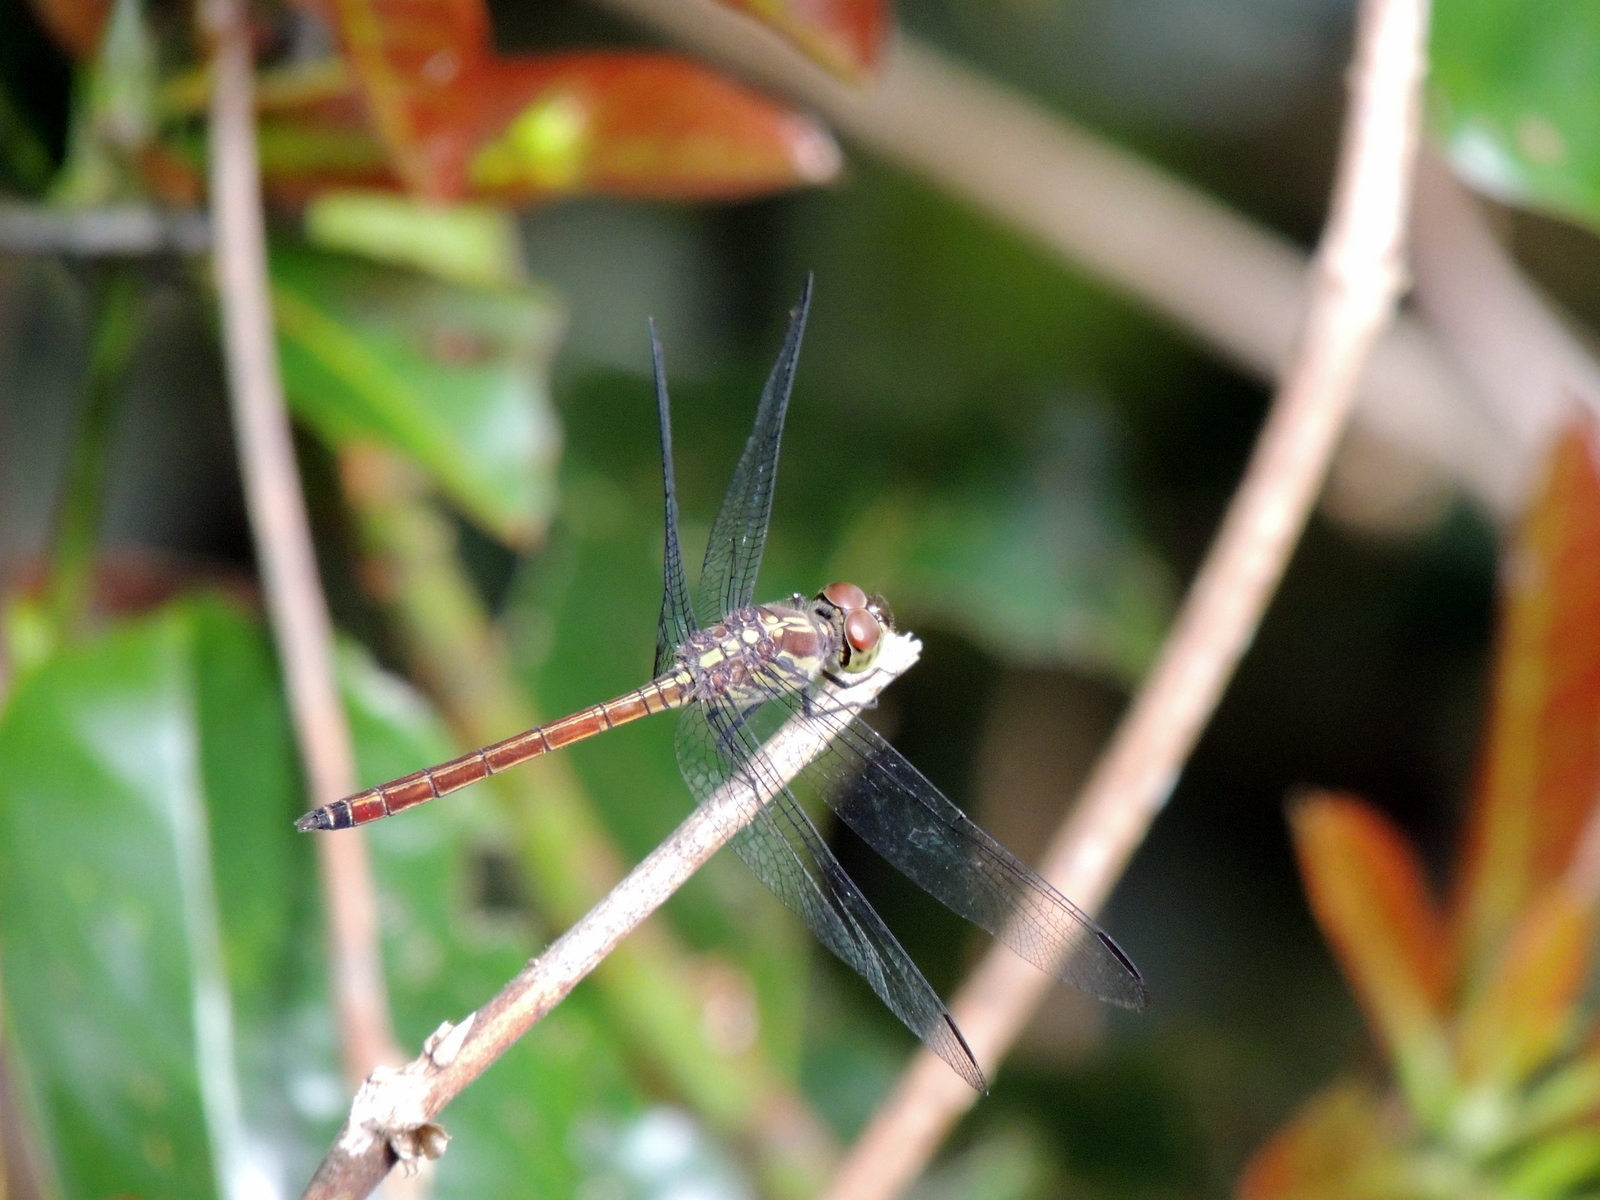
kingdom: Animalia
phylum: Arthropoda
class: Insecta
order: Odonata
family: Libellulidae
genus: Lathrecista
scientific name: Lathrecista asiatica
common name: Scarlet grenadier
